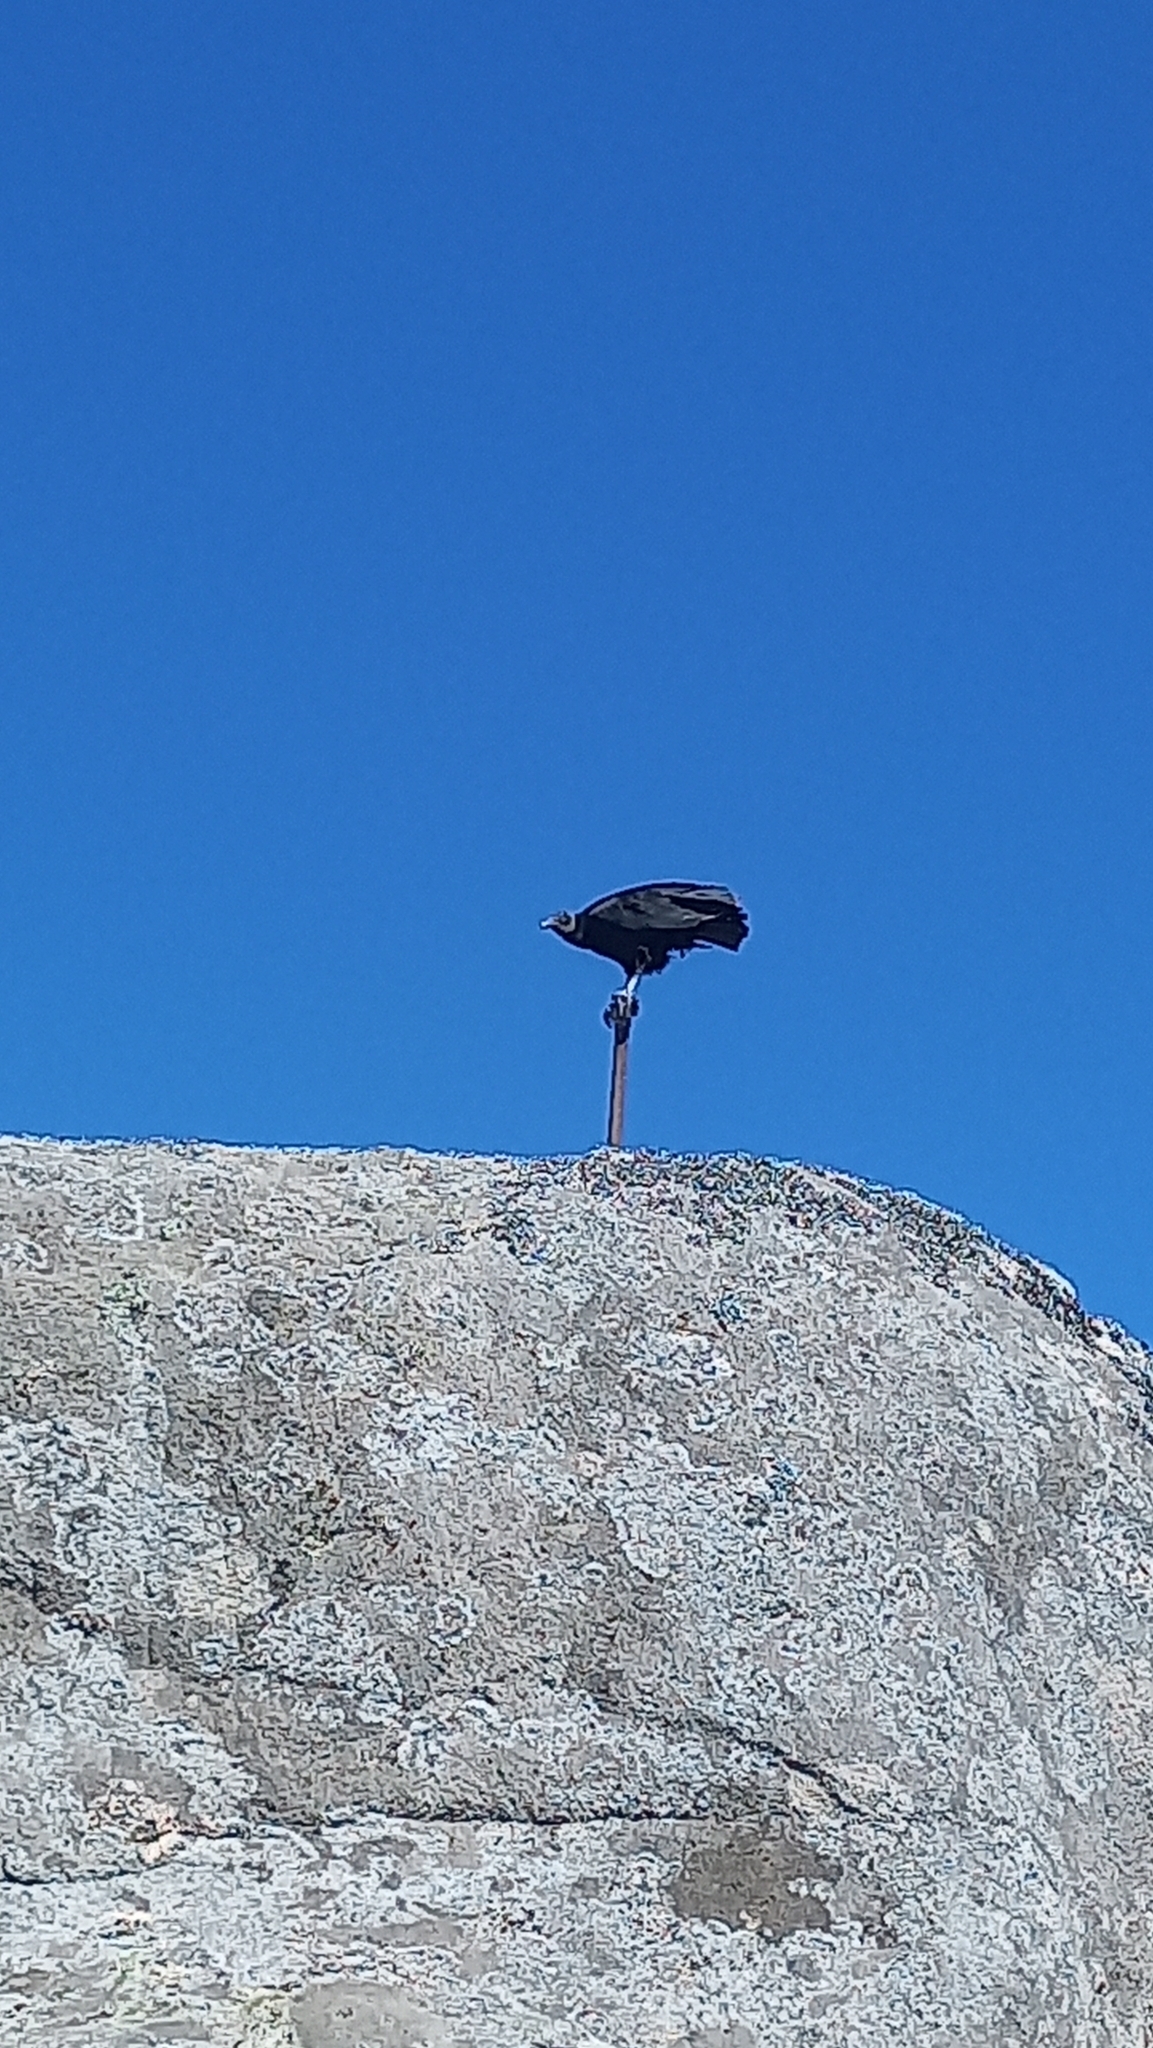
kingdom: Animalia
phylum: Chordata
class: Aves
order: Accipitriformes
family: Cathartidae
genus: Coragyps
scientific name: Coragyps atratus
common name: Black vulture
